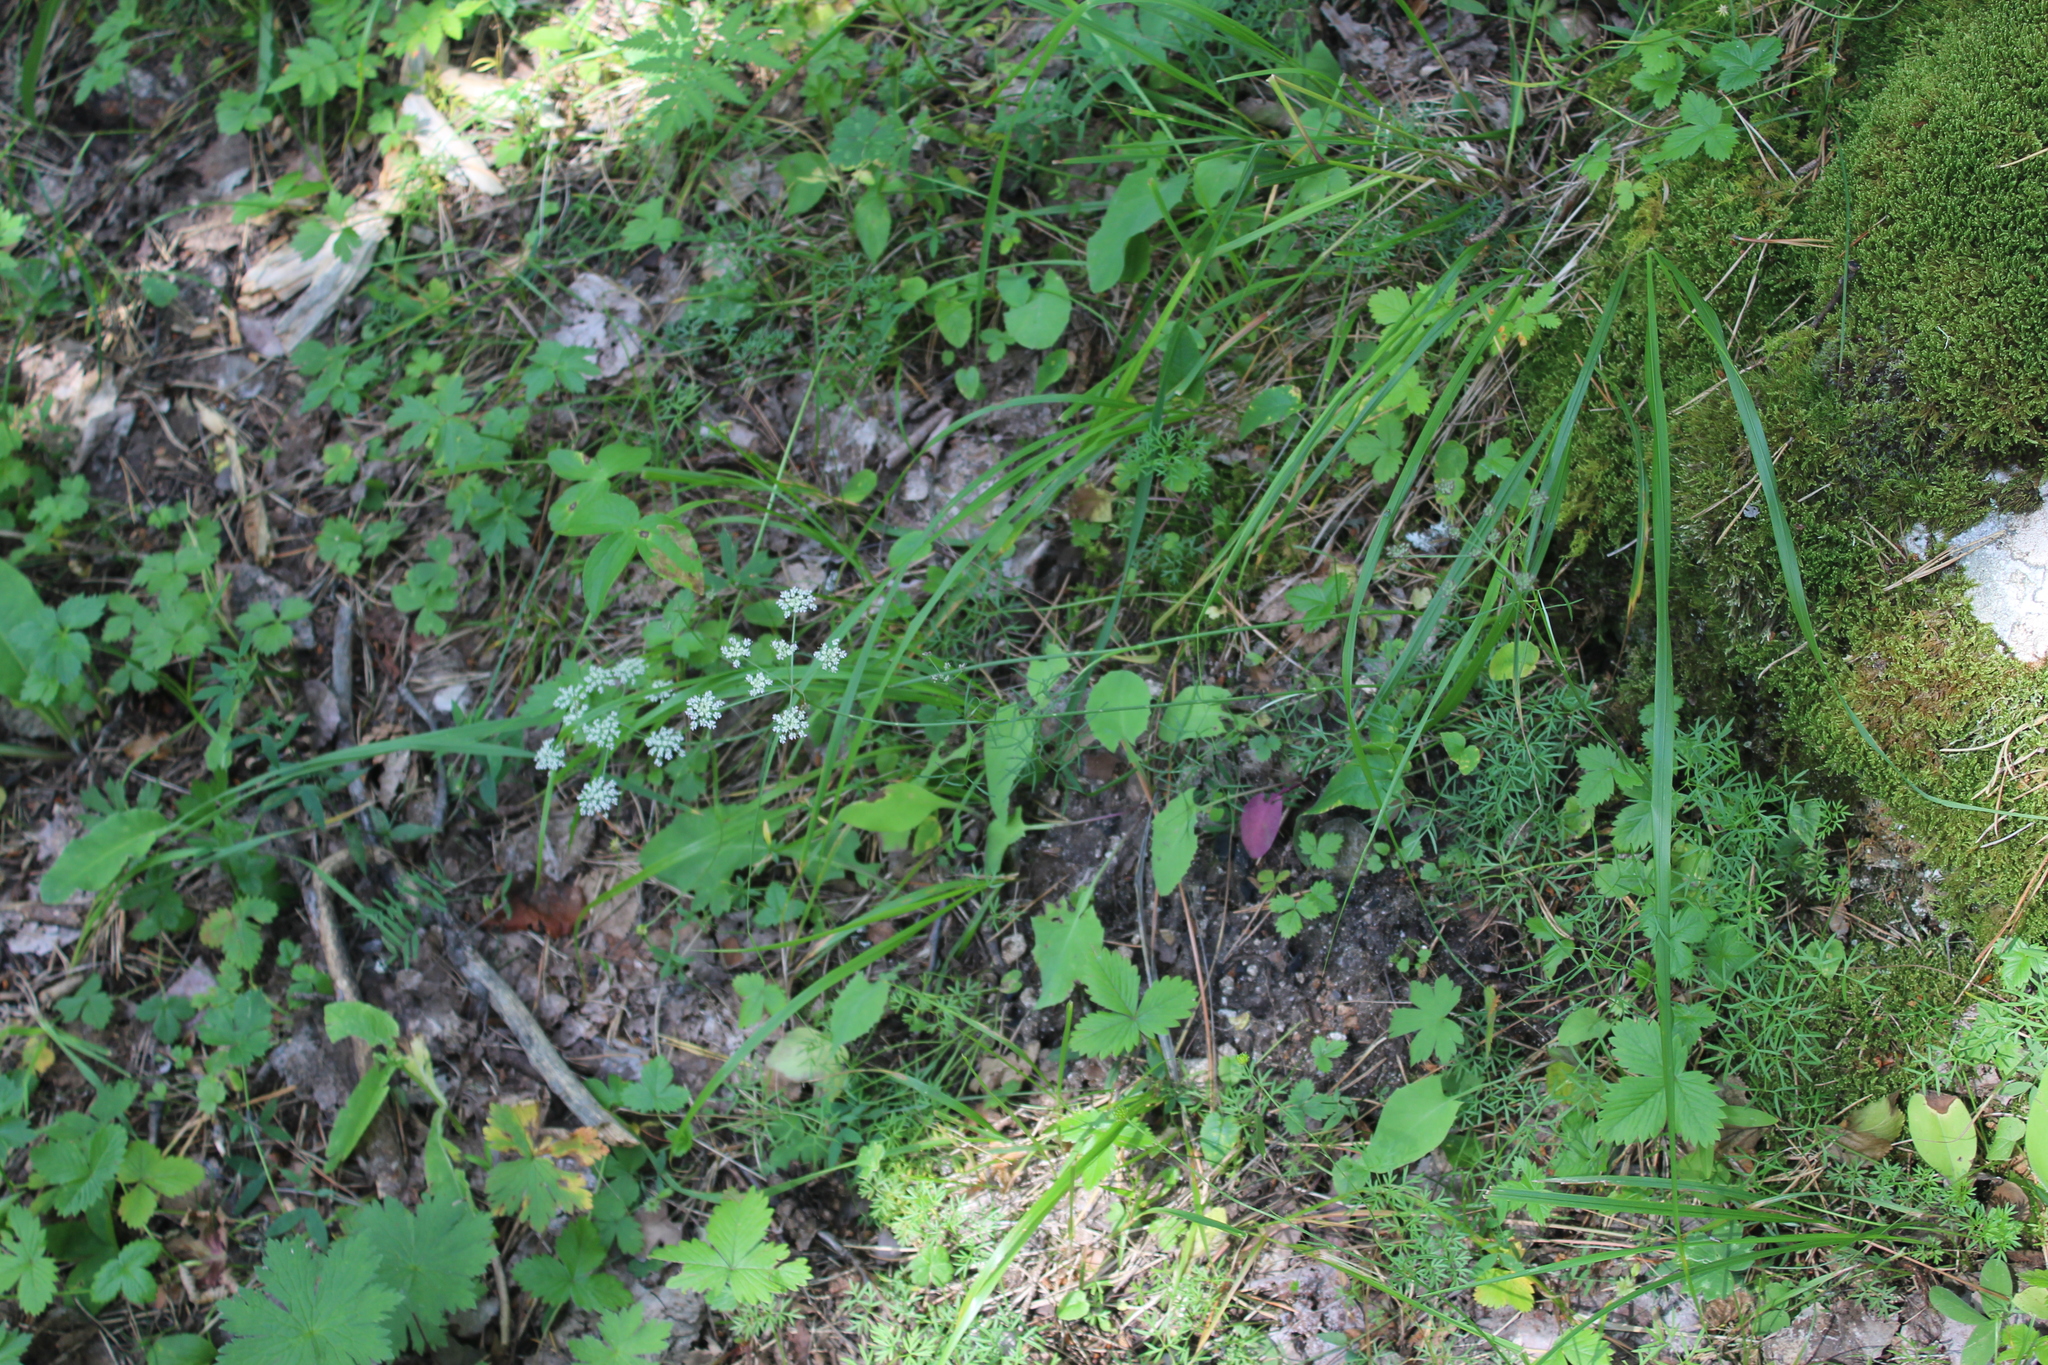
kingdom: Plantae
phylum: Tracheophyta
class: Magnoliopsida
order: Apiales
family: Apiaceae
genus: Lomatocarum
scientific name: Lomatocarum alpinum
